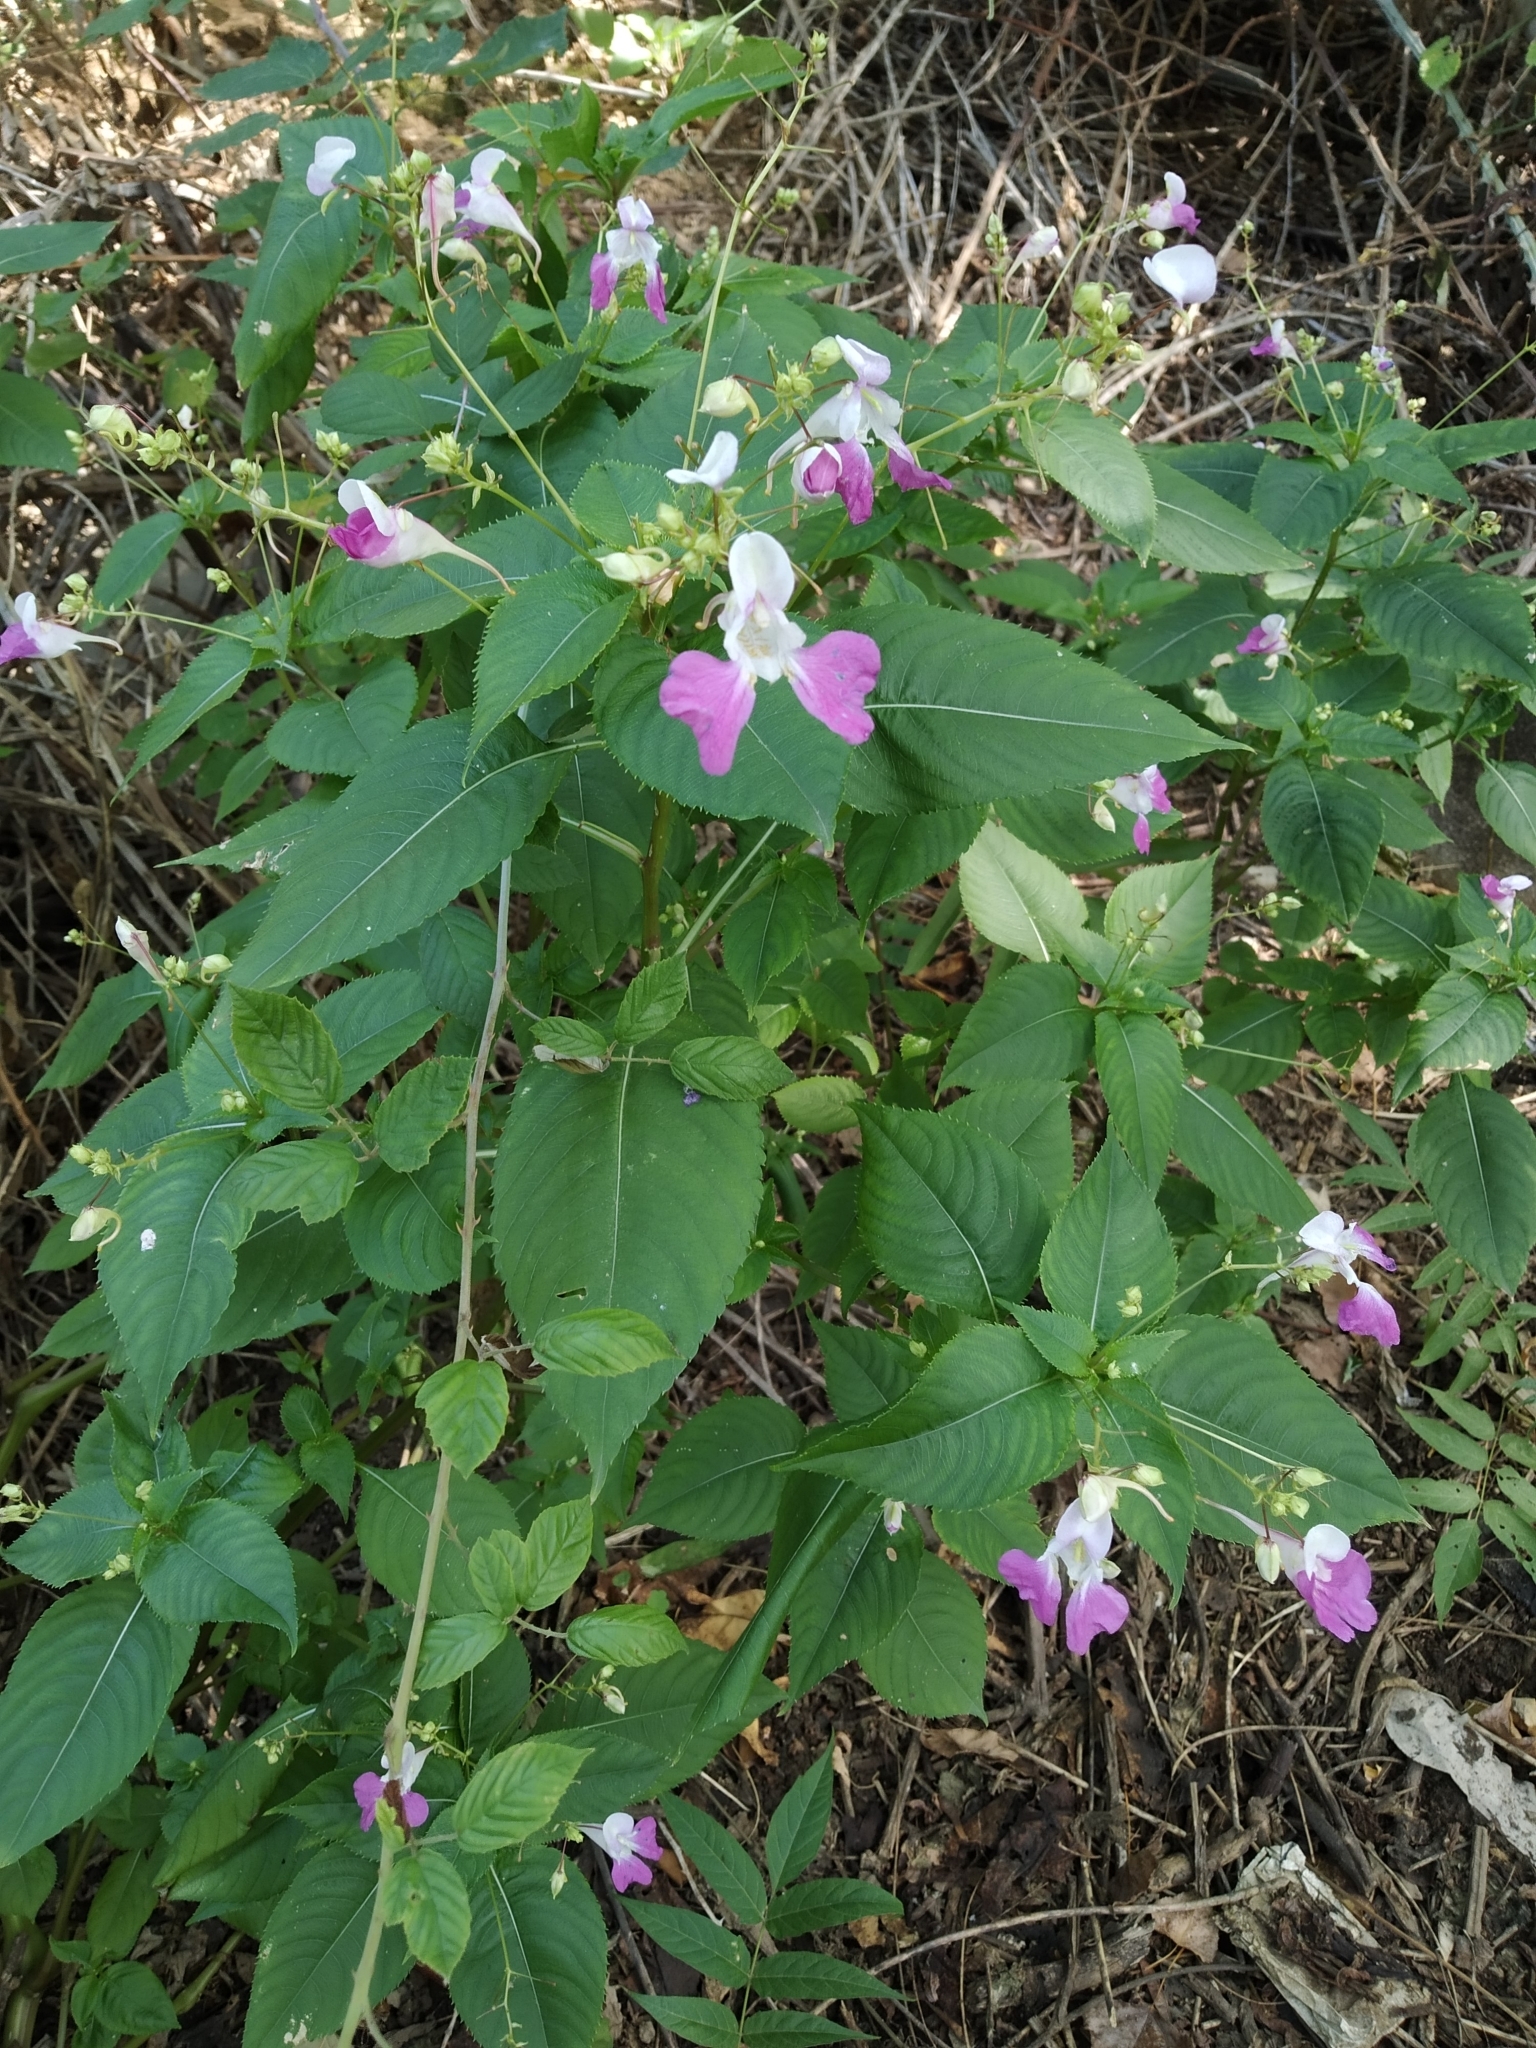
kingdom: Plantae
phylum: Tracheophyta
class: Magnoliopsida
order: Ericales
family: Balsaminaceae
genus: Impatiens
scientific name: Impatiens balfourii
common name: Balfour's touch-me-not
